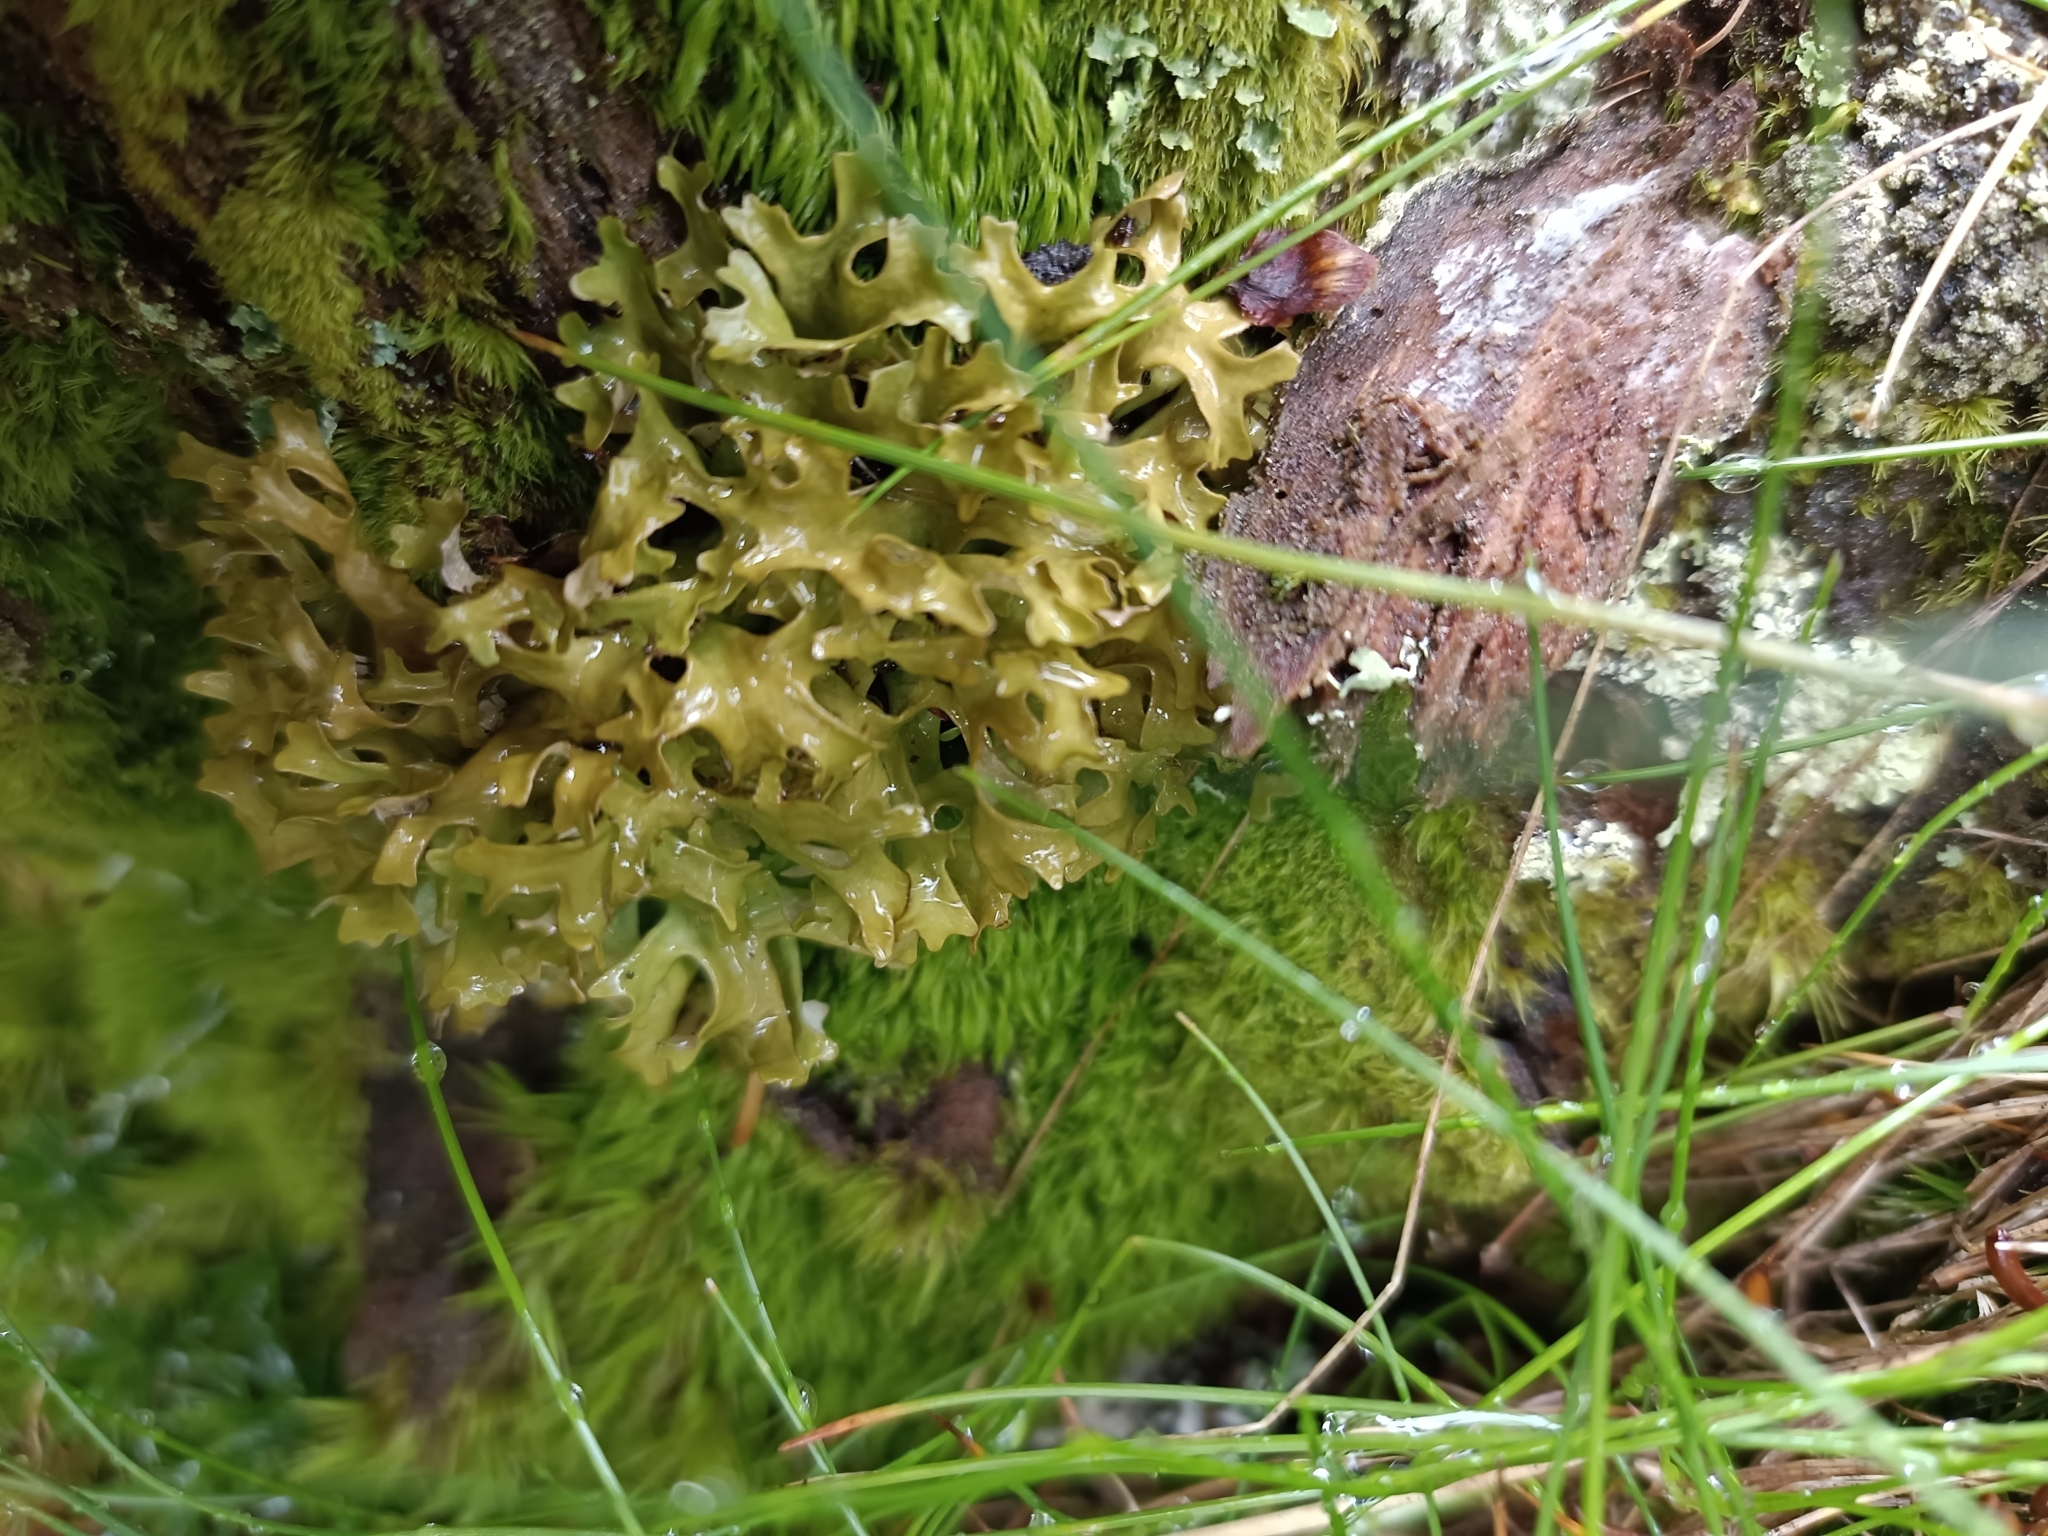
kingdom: Fungi
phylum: Ascomycota
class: Lecanoromycetes
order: Lecanorales
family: Parmeliaceae
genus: Cetraria
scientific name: Cetraria islandica
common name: Iceland lichen
